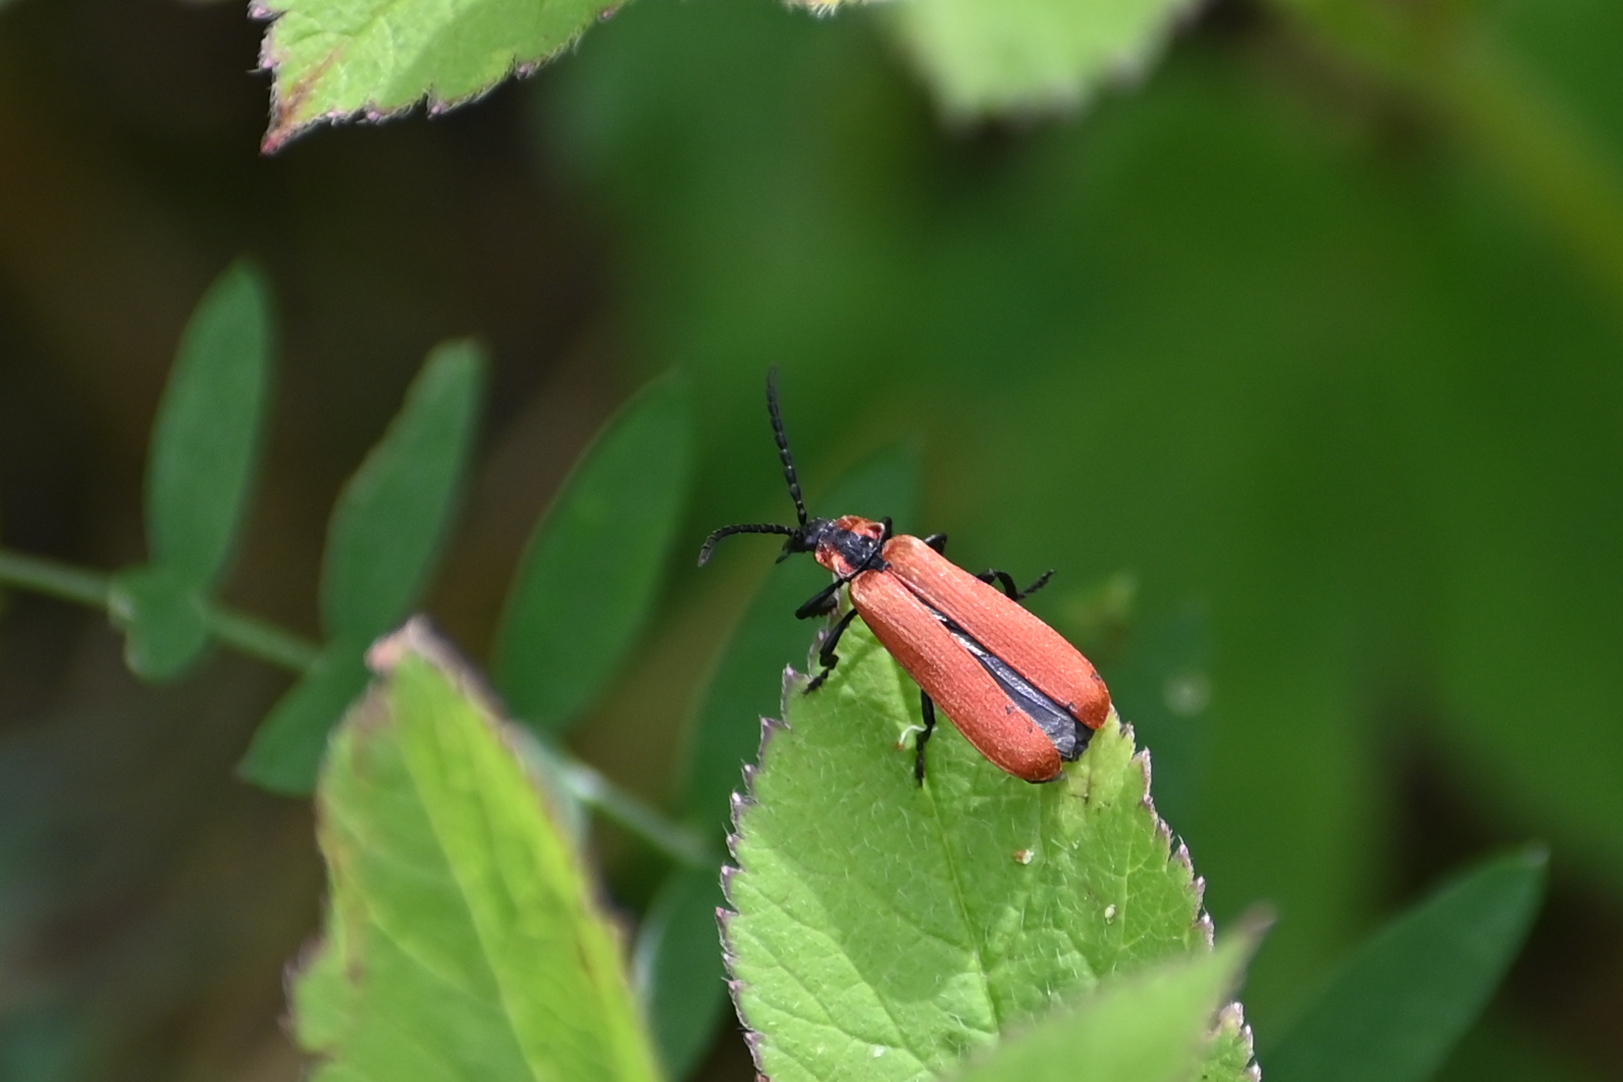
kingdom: Animalia
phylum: Arthropoda
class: Insecta
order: Coleoptera
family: Lycidae
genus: Lygistopterus
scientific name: Lygistopterus sanguineus
